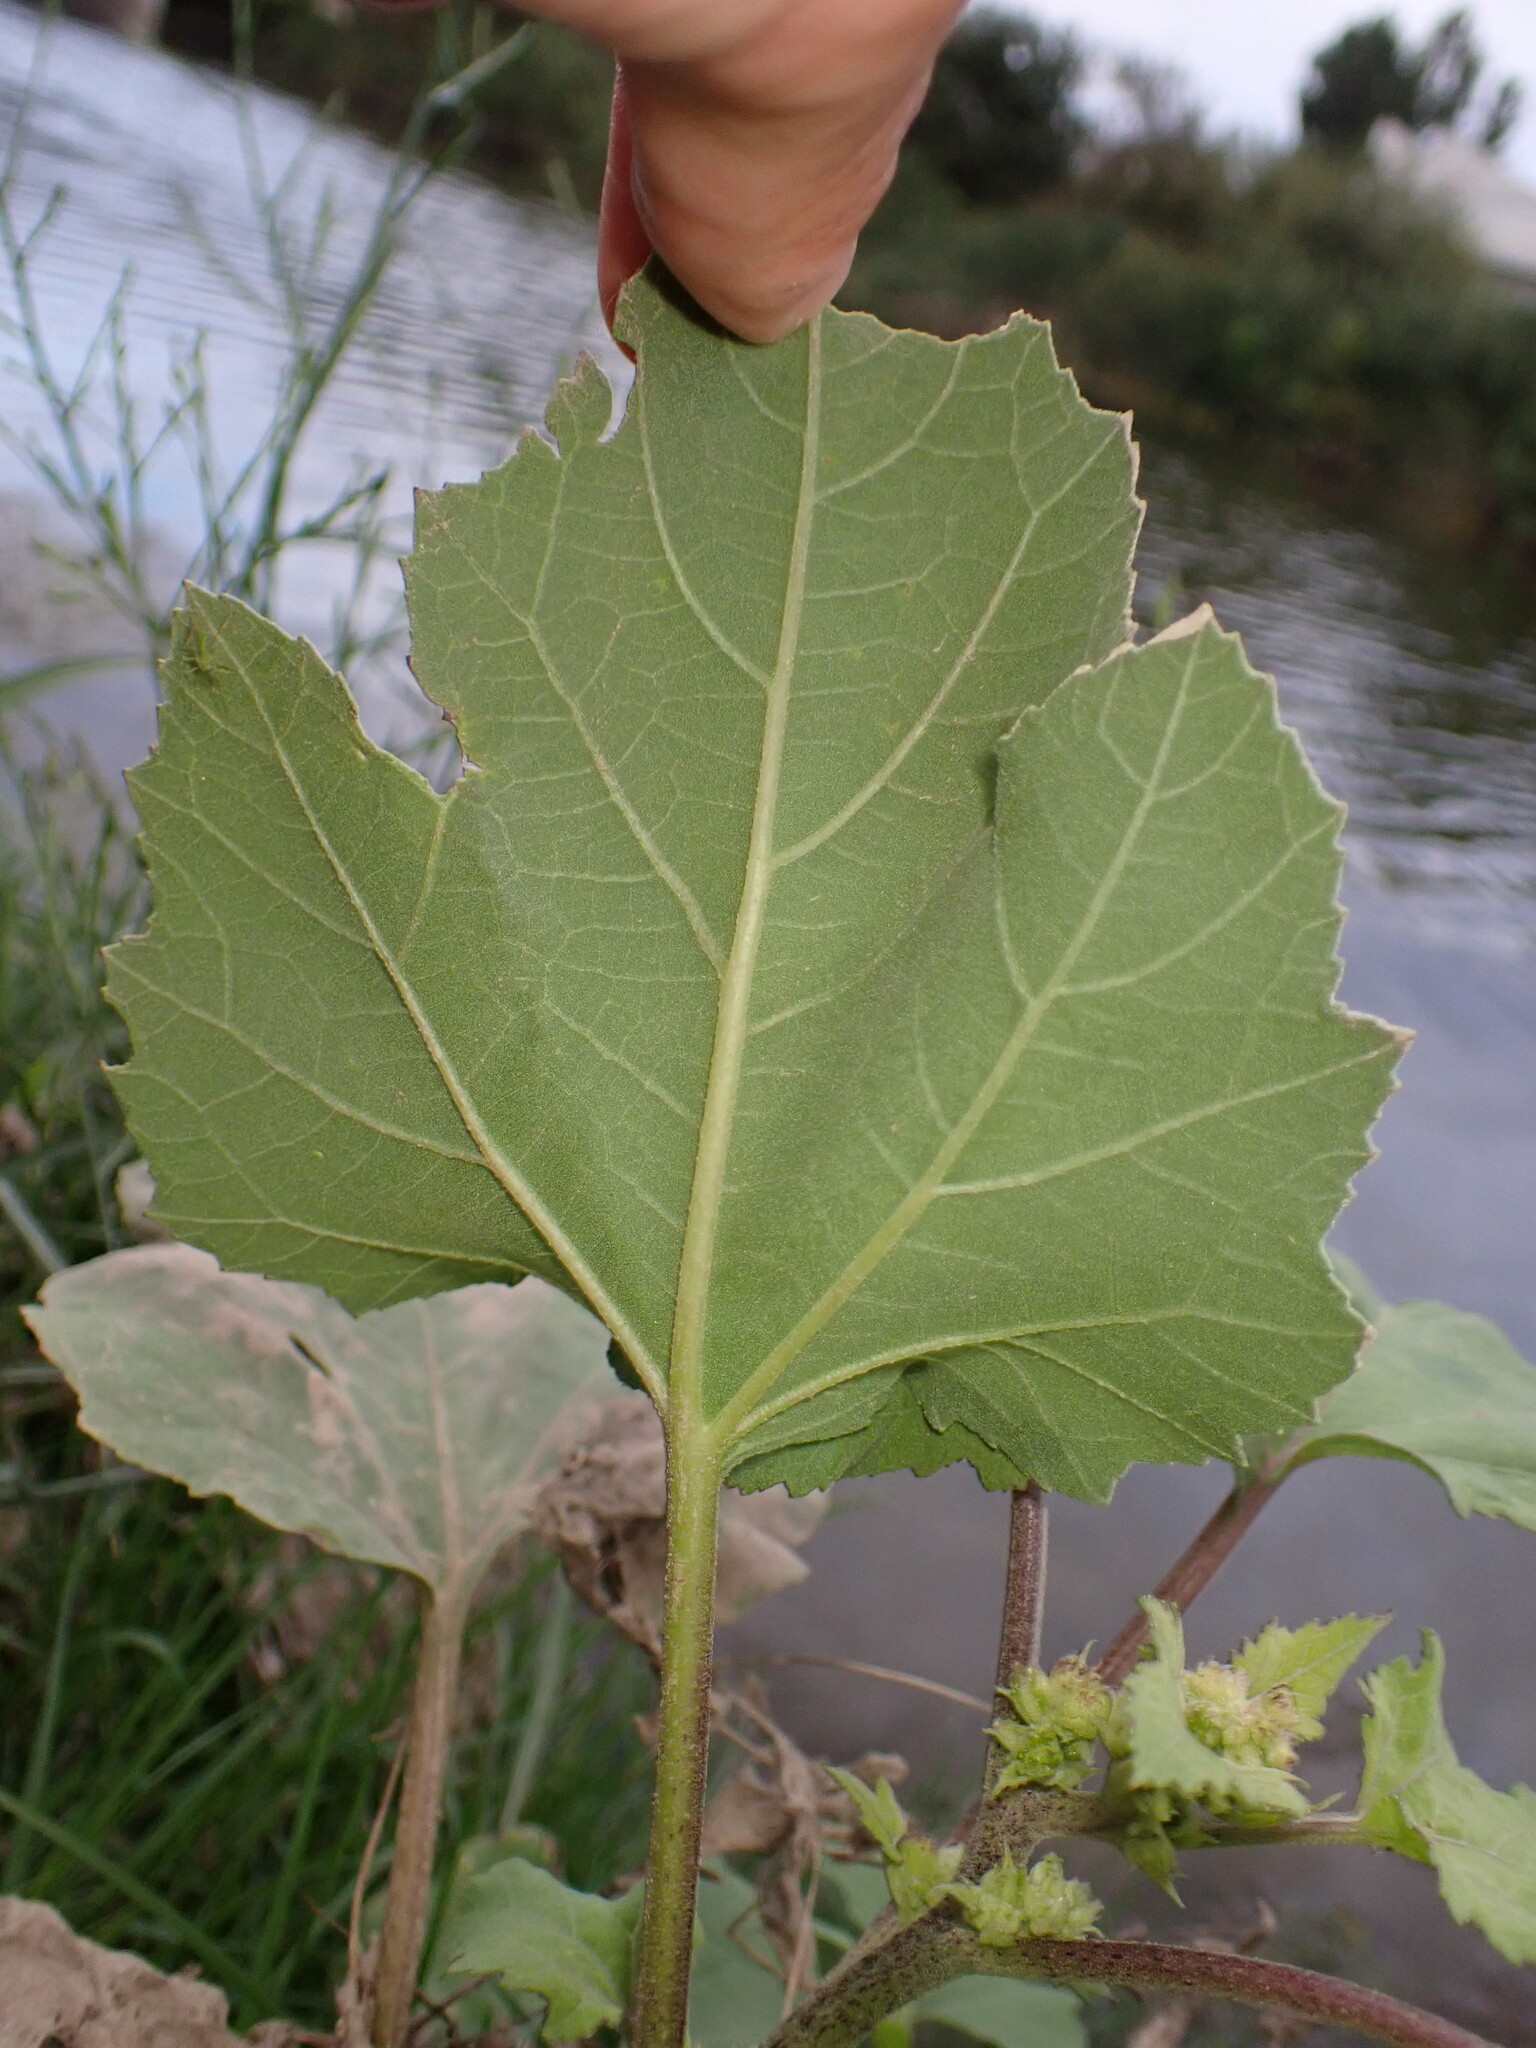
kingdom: Plantae
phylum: Tracheophyta
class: Magnoliopsida
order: Asterales
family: Asteraceae
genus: Xanthium
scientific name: Xanthium strumarium
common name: Rough cocklebur
